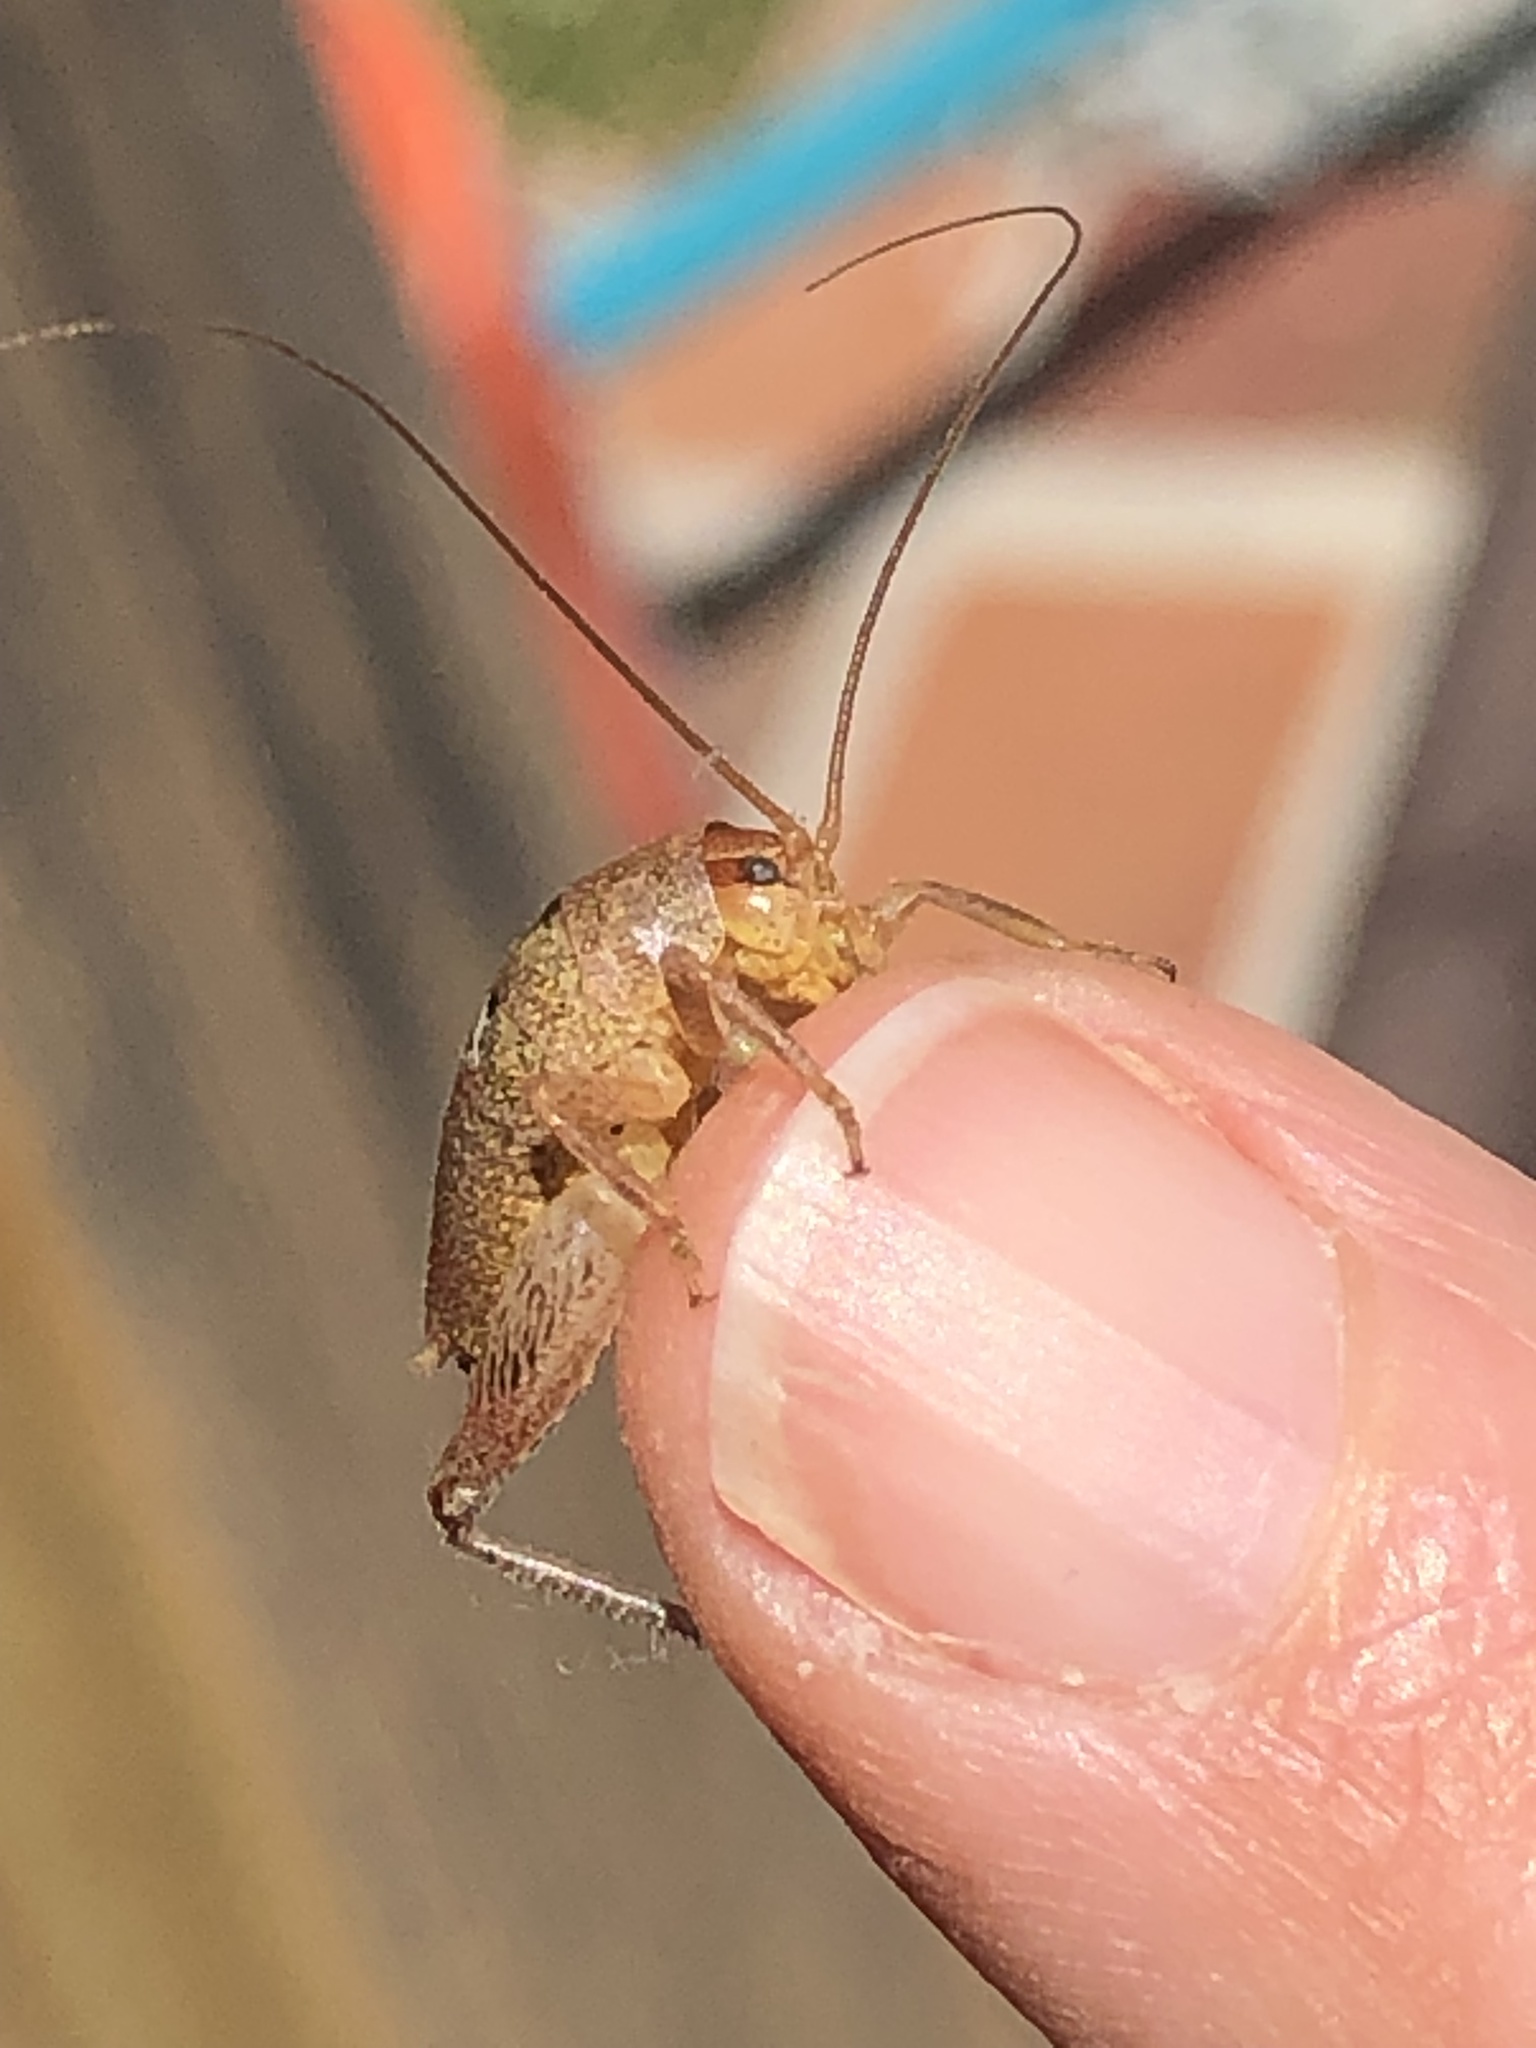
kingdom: Animalia
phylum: Arthropoda
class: Insecta
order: Orthoptera
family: Rhaphidophoridae
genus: Gammarotettix
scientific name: Gammarotettix bilobatus
